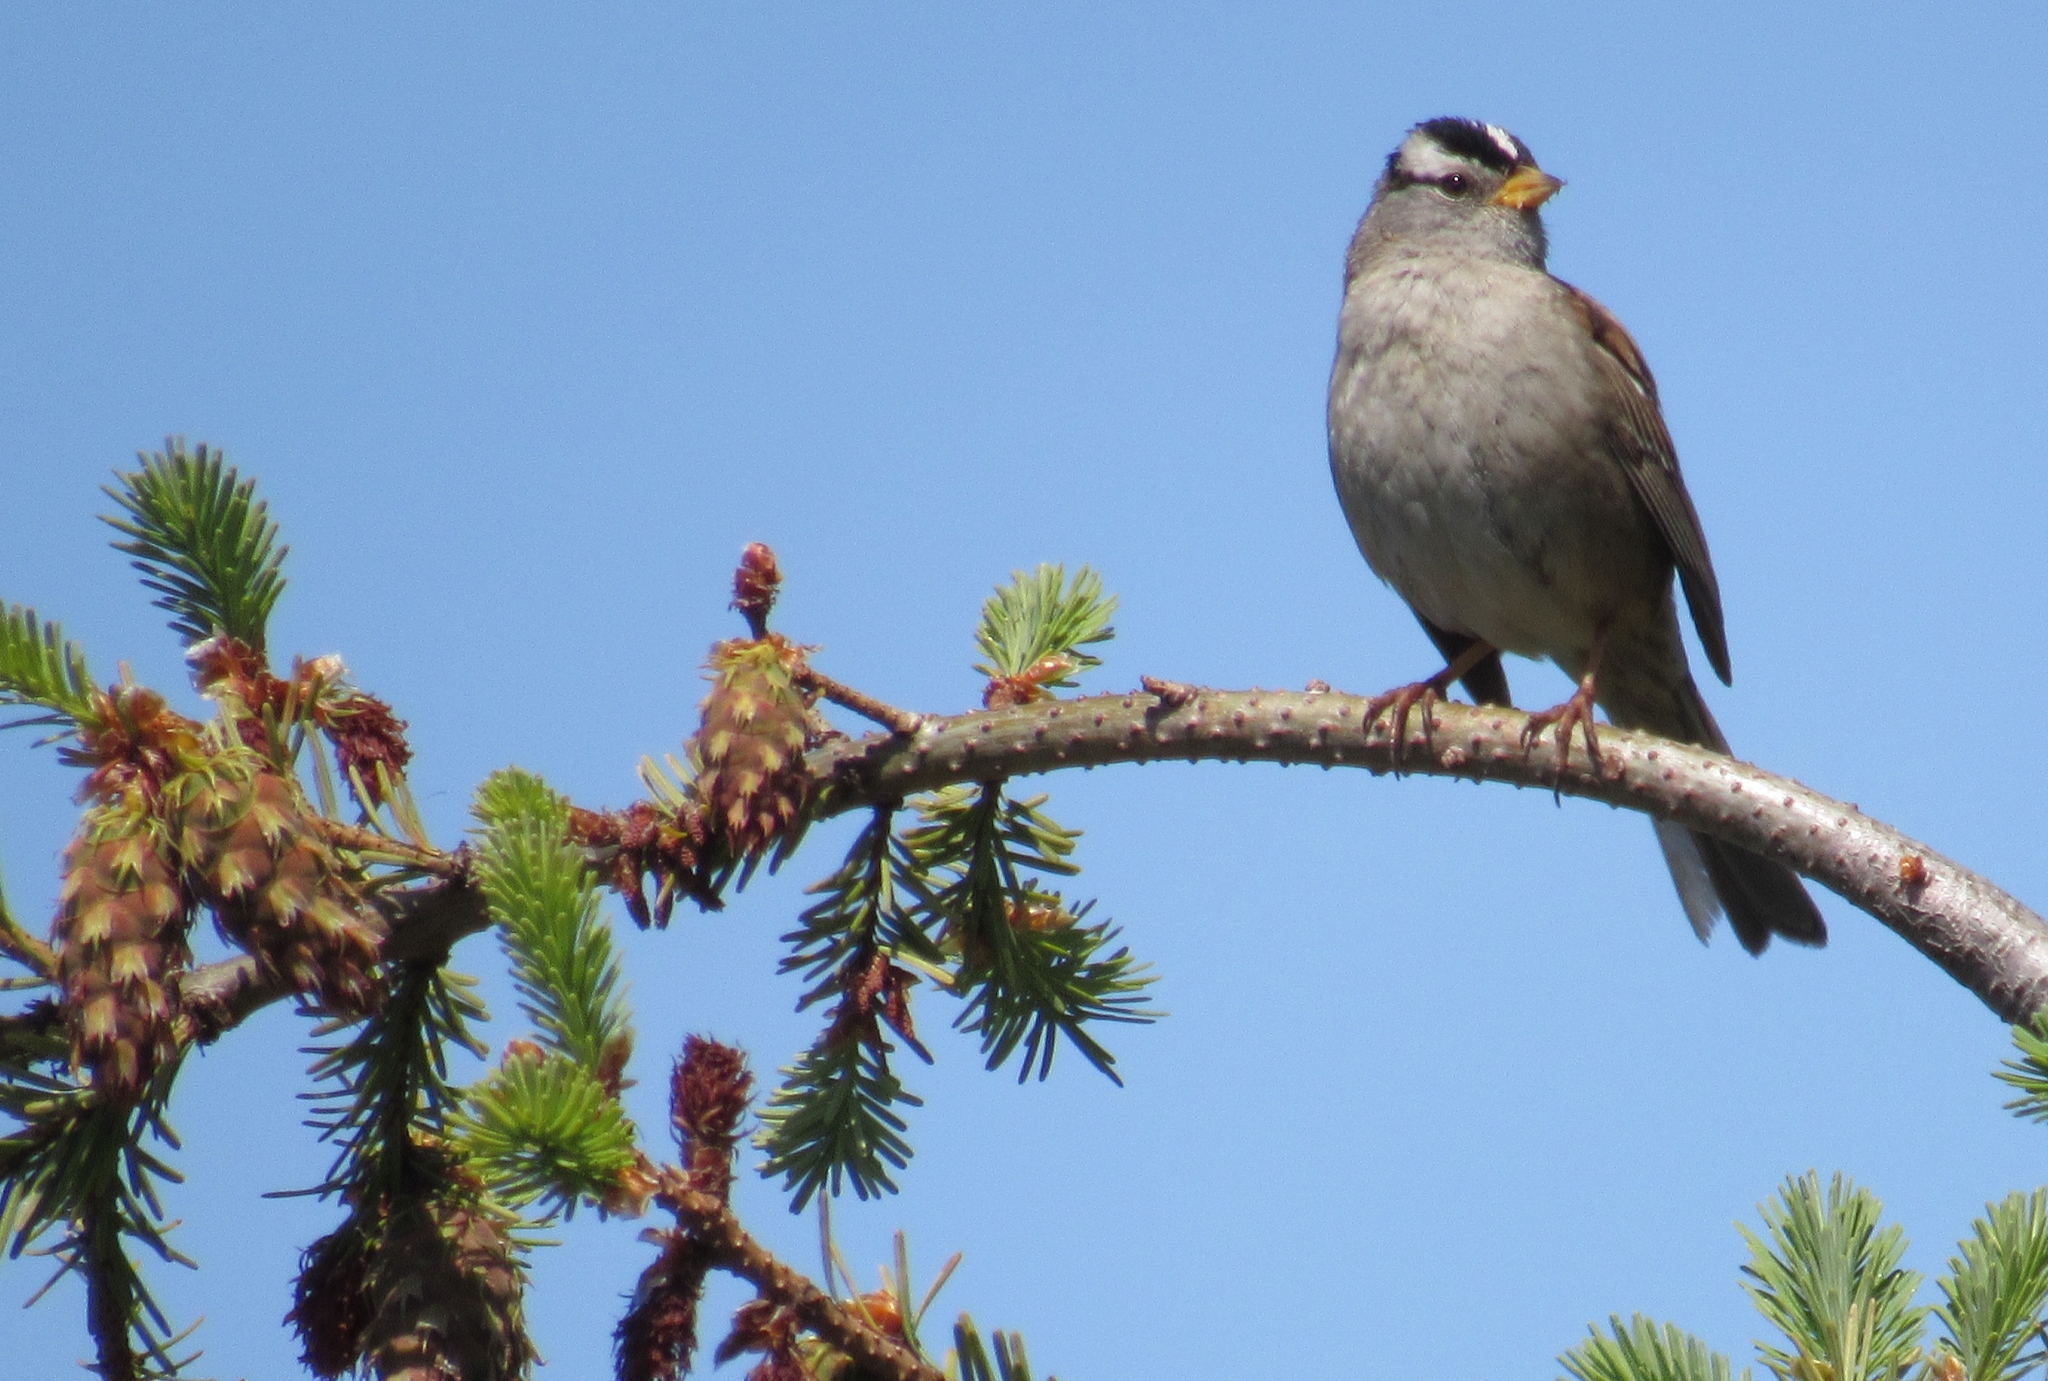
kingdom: Animalia
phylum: Chordata
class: Aves
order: Passeriformes
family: Passerellidae
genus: Zonotrichia
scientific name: Zonotrichia leucophrys
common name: White-crowned sparrow
